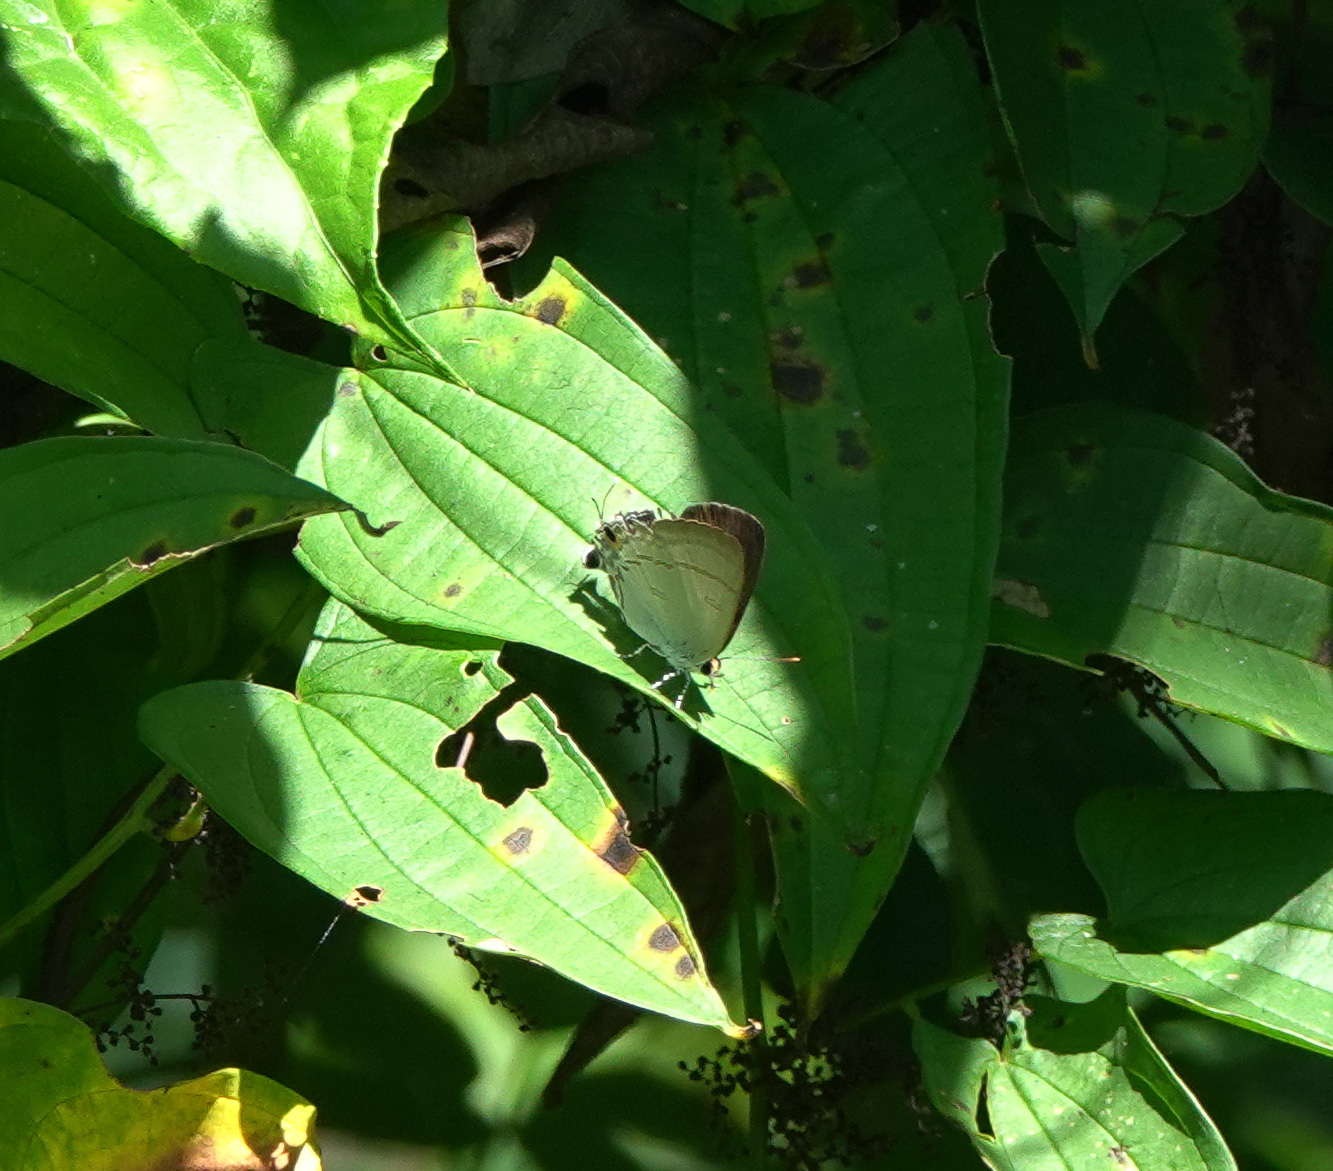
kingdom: Animalia
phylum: Arthropoda
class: Insecta
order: Lepidoptera
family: Lycaenidae
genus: Hypolycaena
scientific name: Hypolycaena erylus
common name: Common tit
